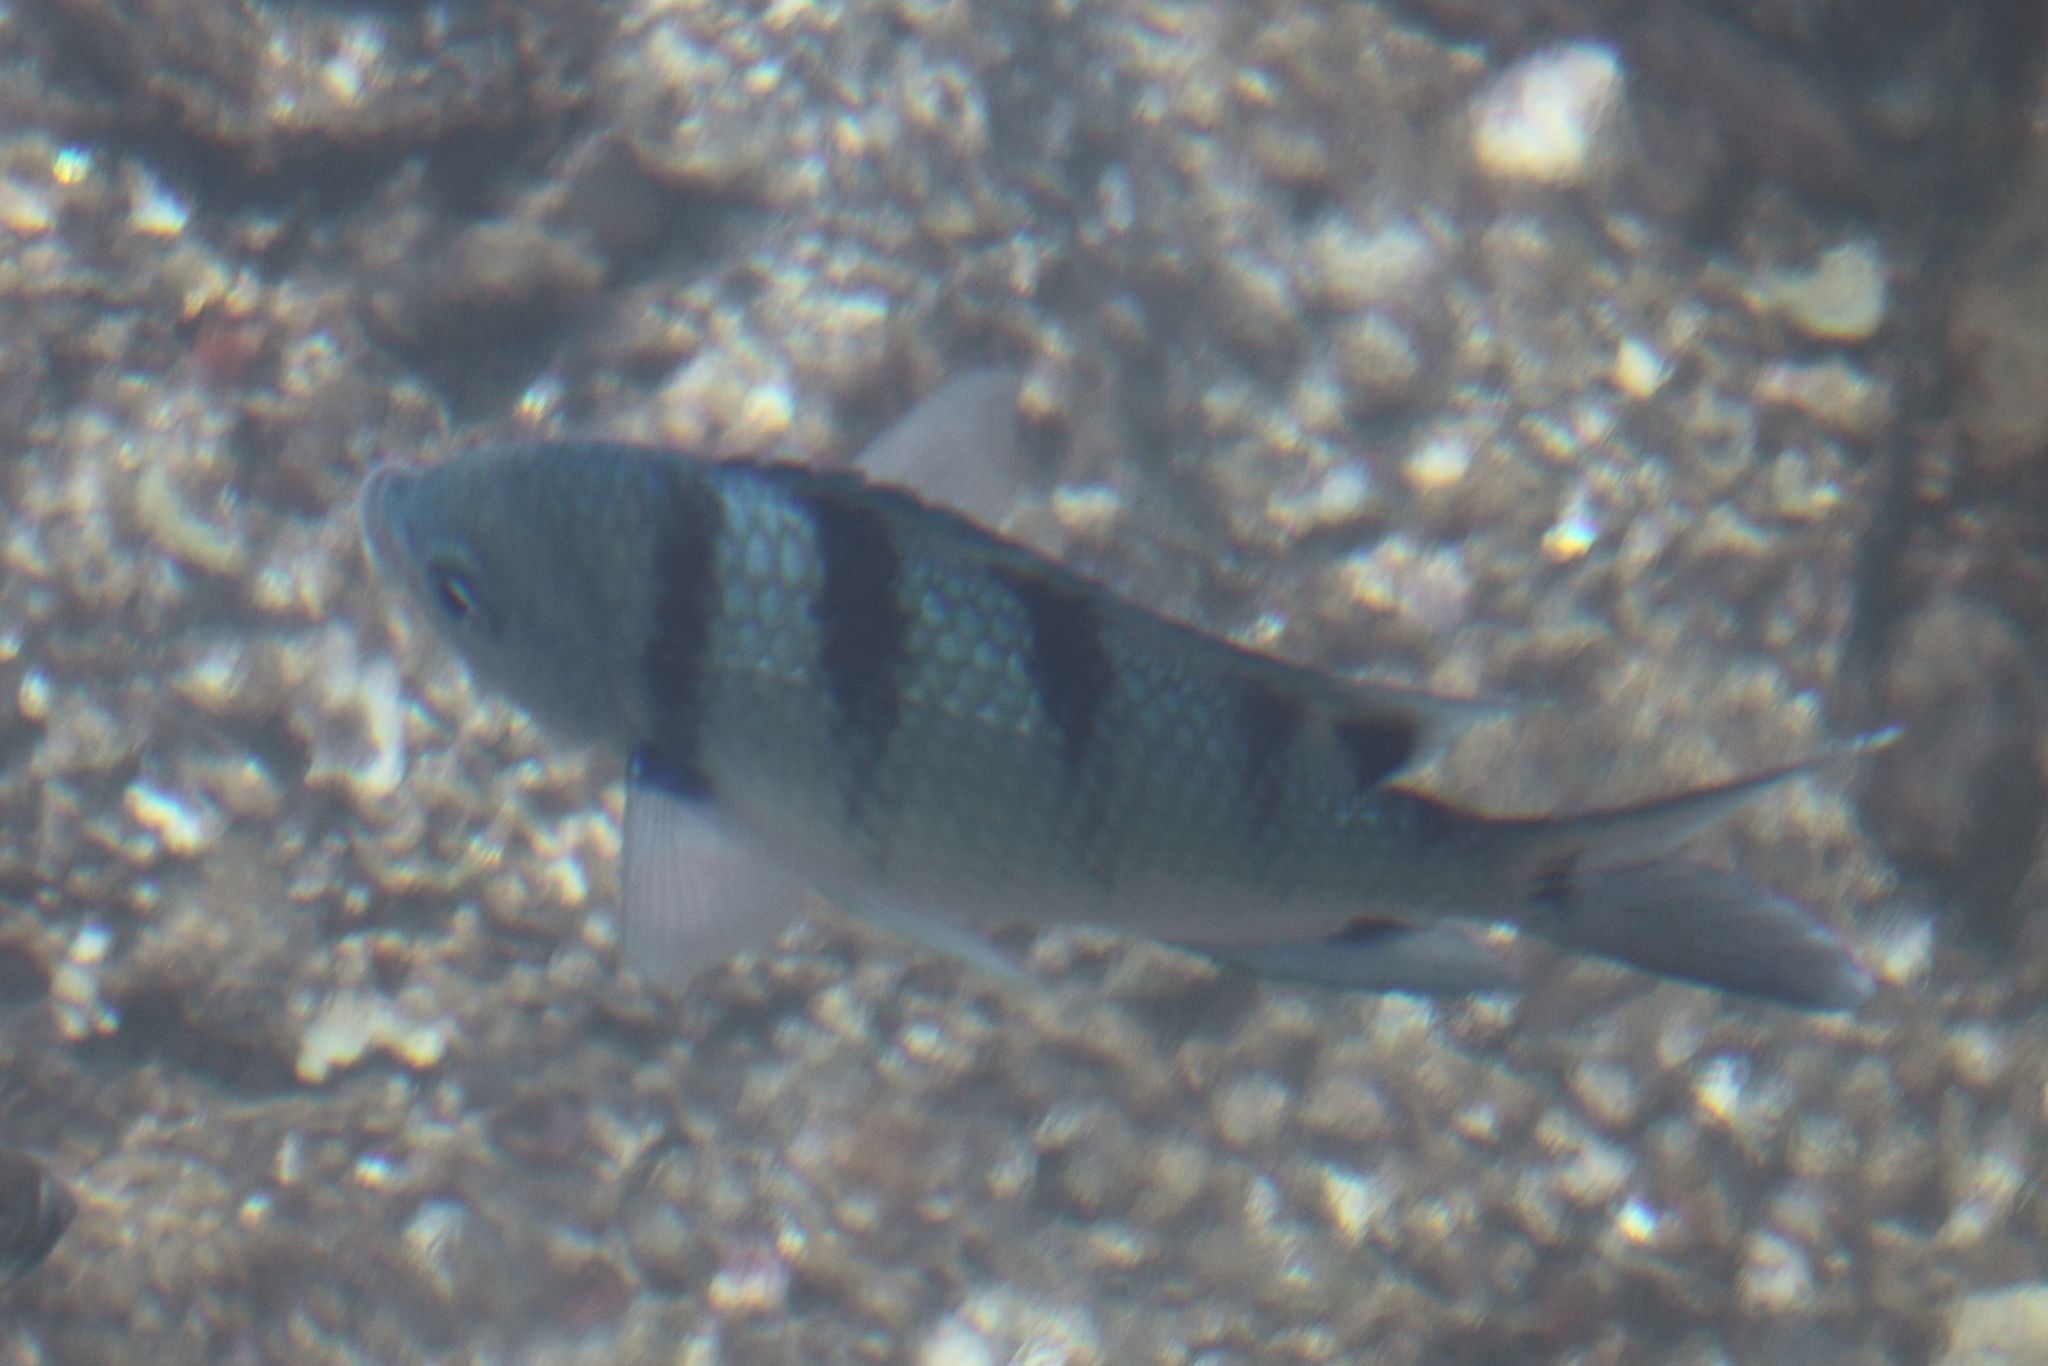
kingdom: Animalia
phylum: Chordata
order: Perciformes
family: Pomacentridae
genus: Abudefduf
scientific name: Abudefduf abdominalis
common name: Green damselfish
